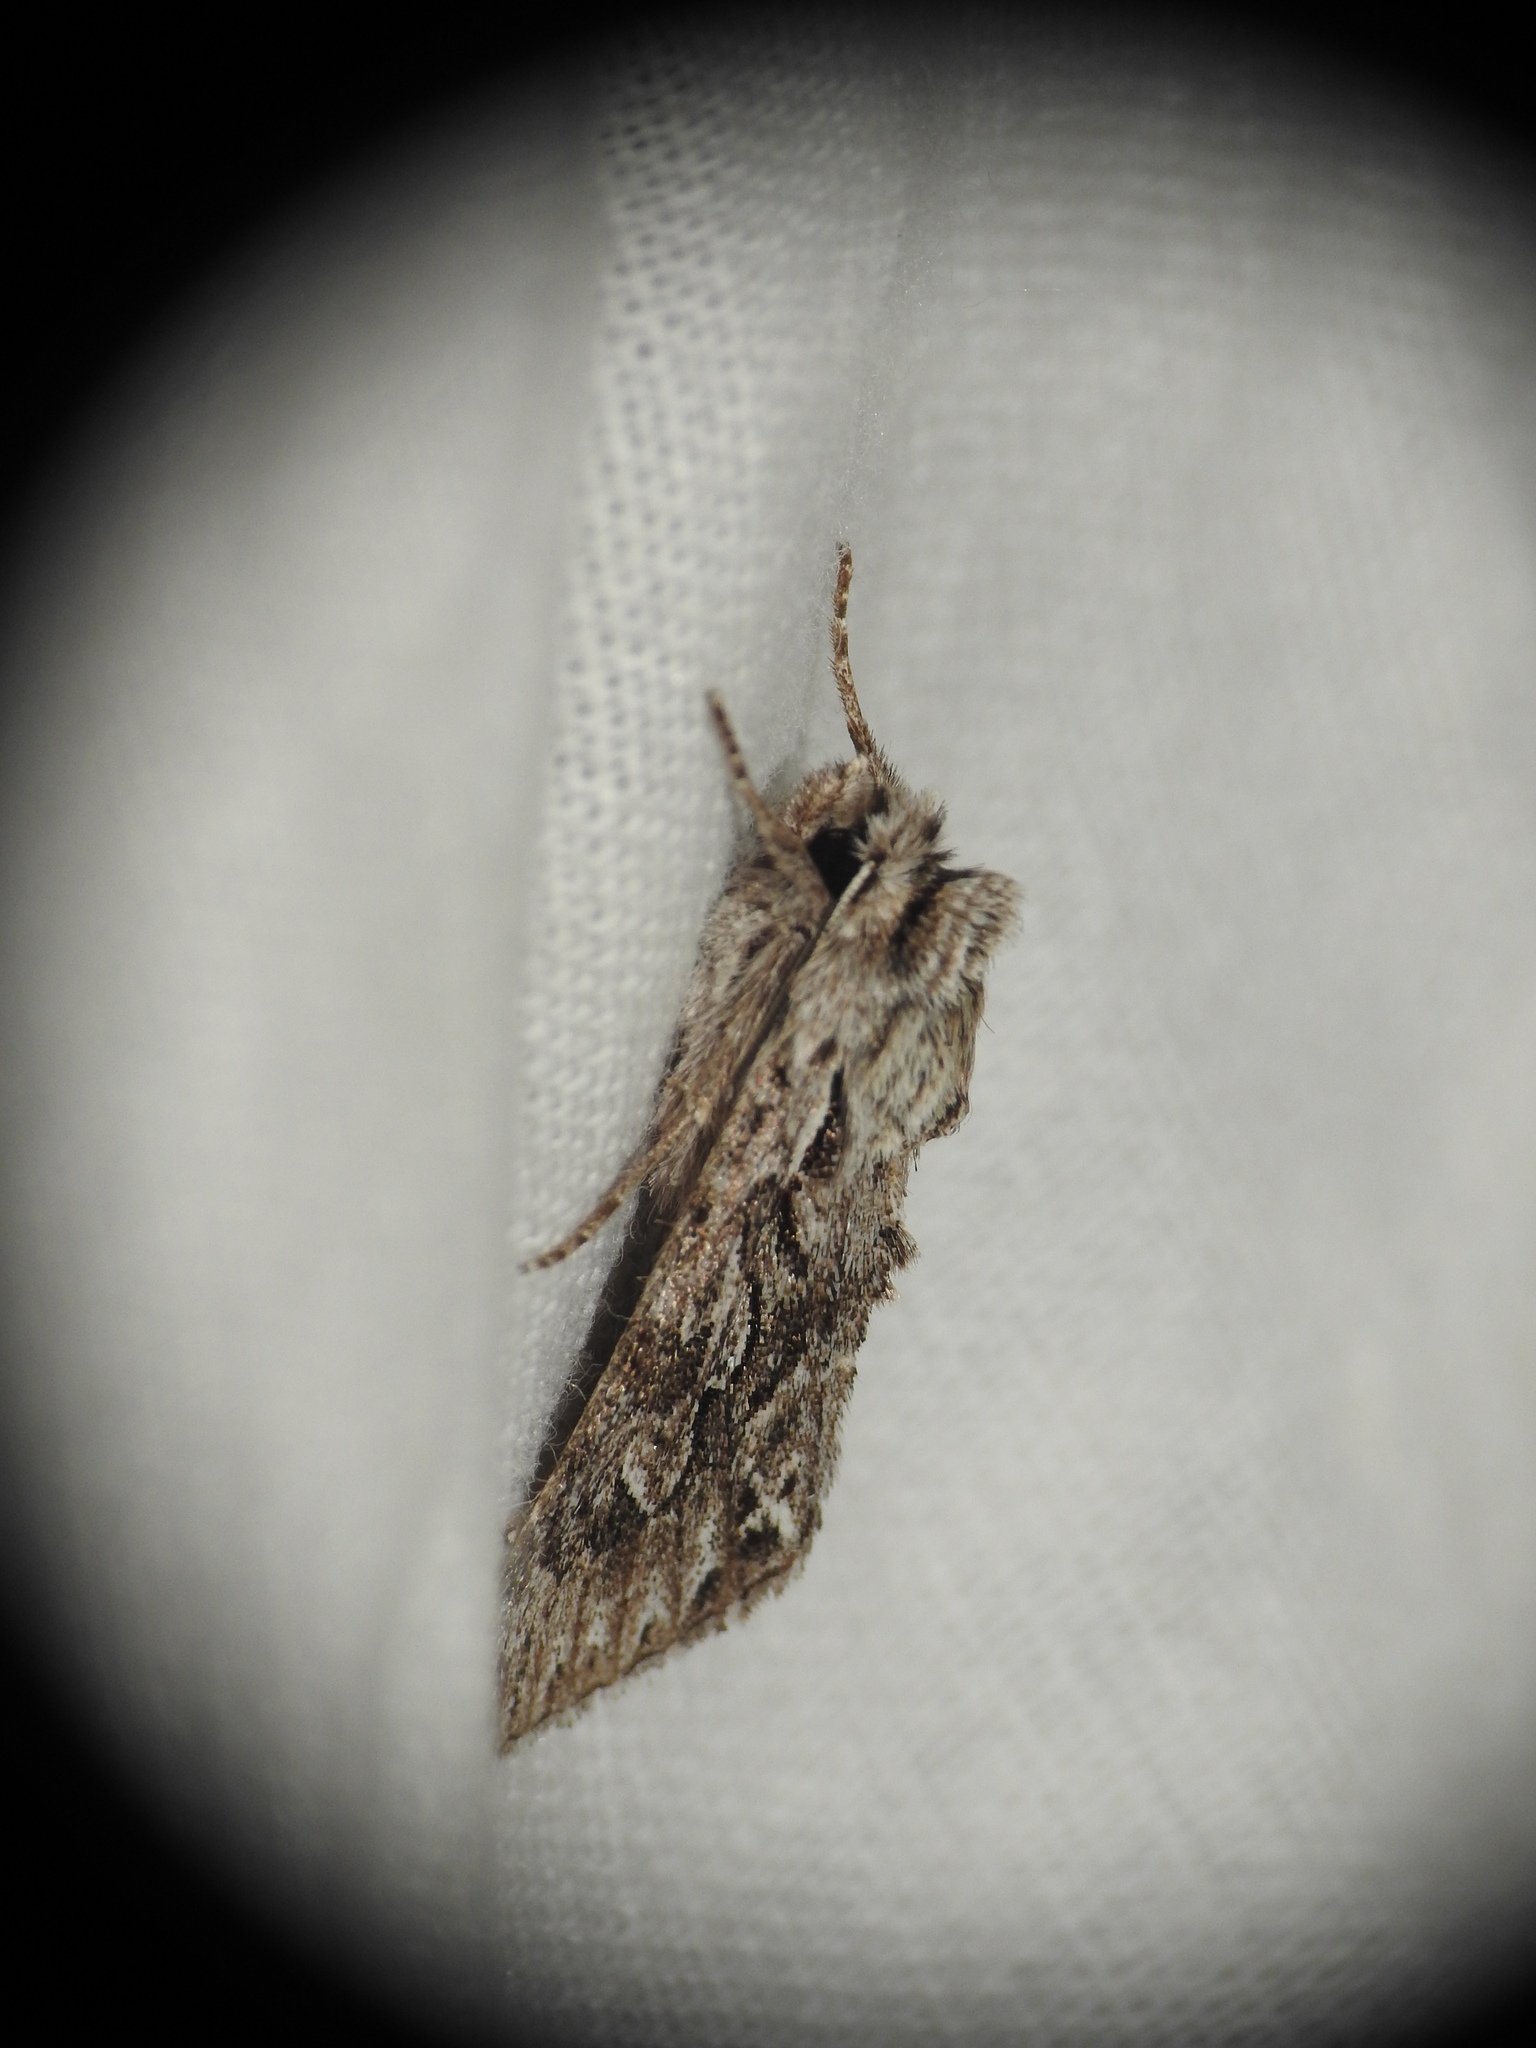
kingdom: Animalia
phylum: Arthropoda
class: Insecta
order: Lepidoptera
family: Noctuidae
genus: Xylocampa
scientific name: Xylocampa areola
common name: Early grey
